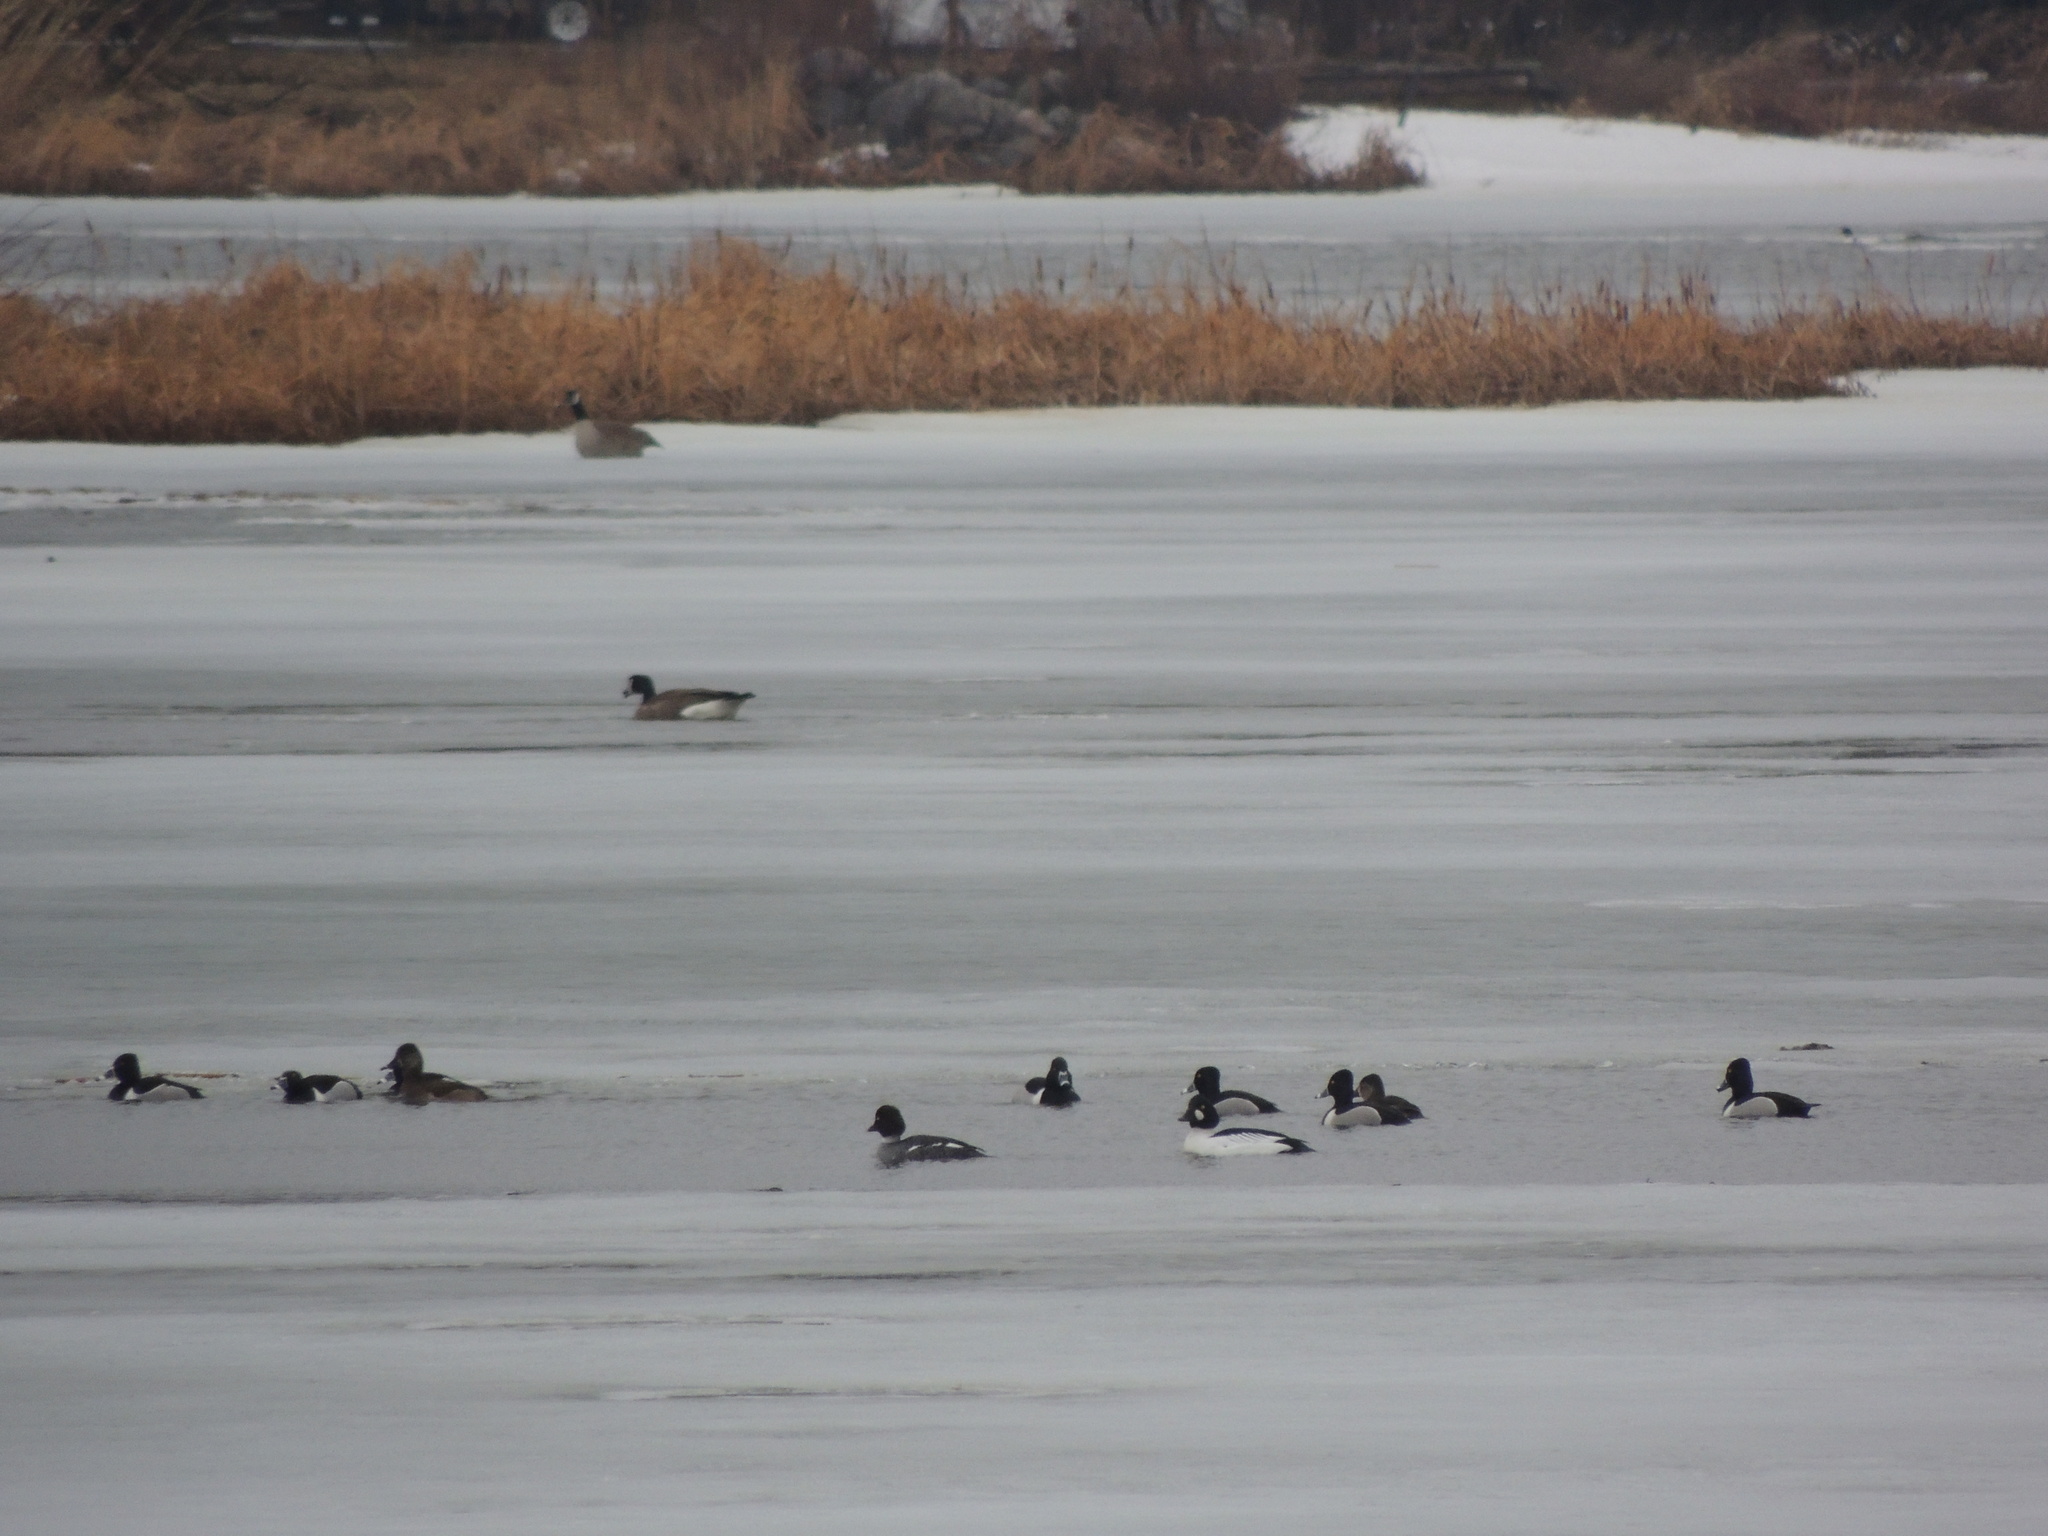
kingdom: Animalia
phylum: Chordata
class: Aves
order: Anseriformes
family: Anatidae
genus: Bucephala
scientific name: Bucephala clangula
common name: Common goldeneye
